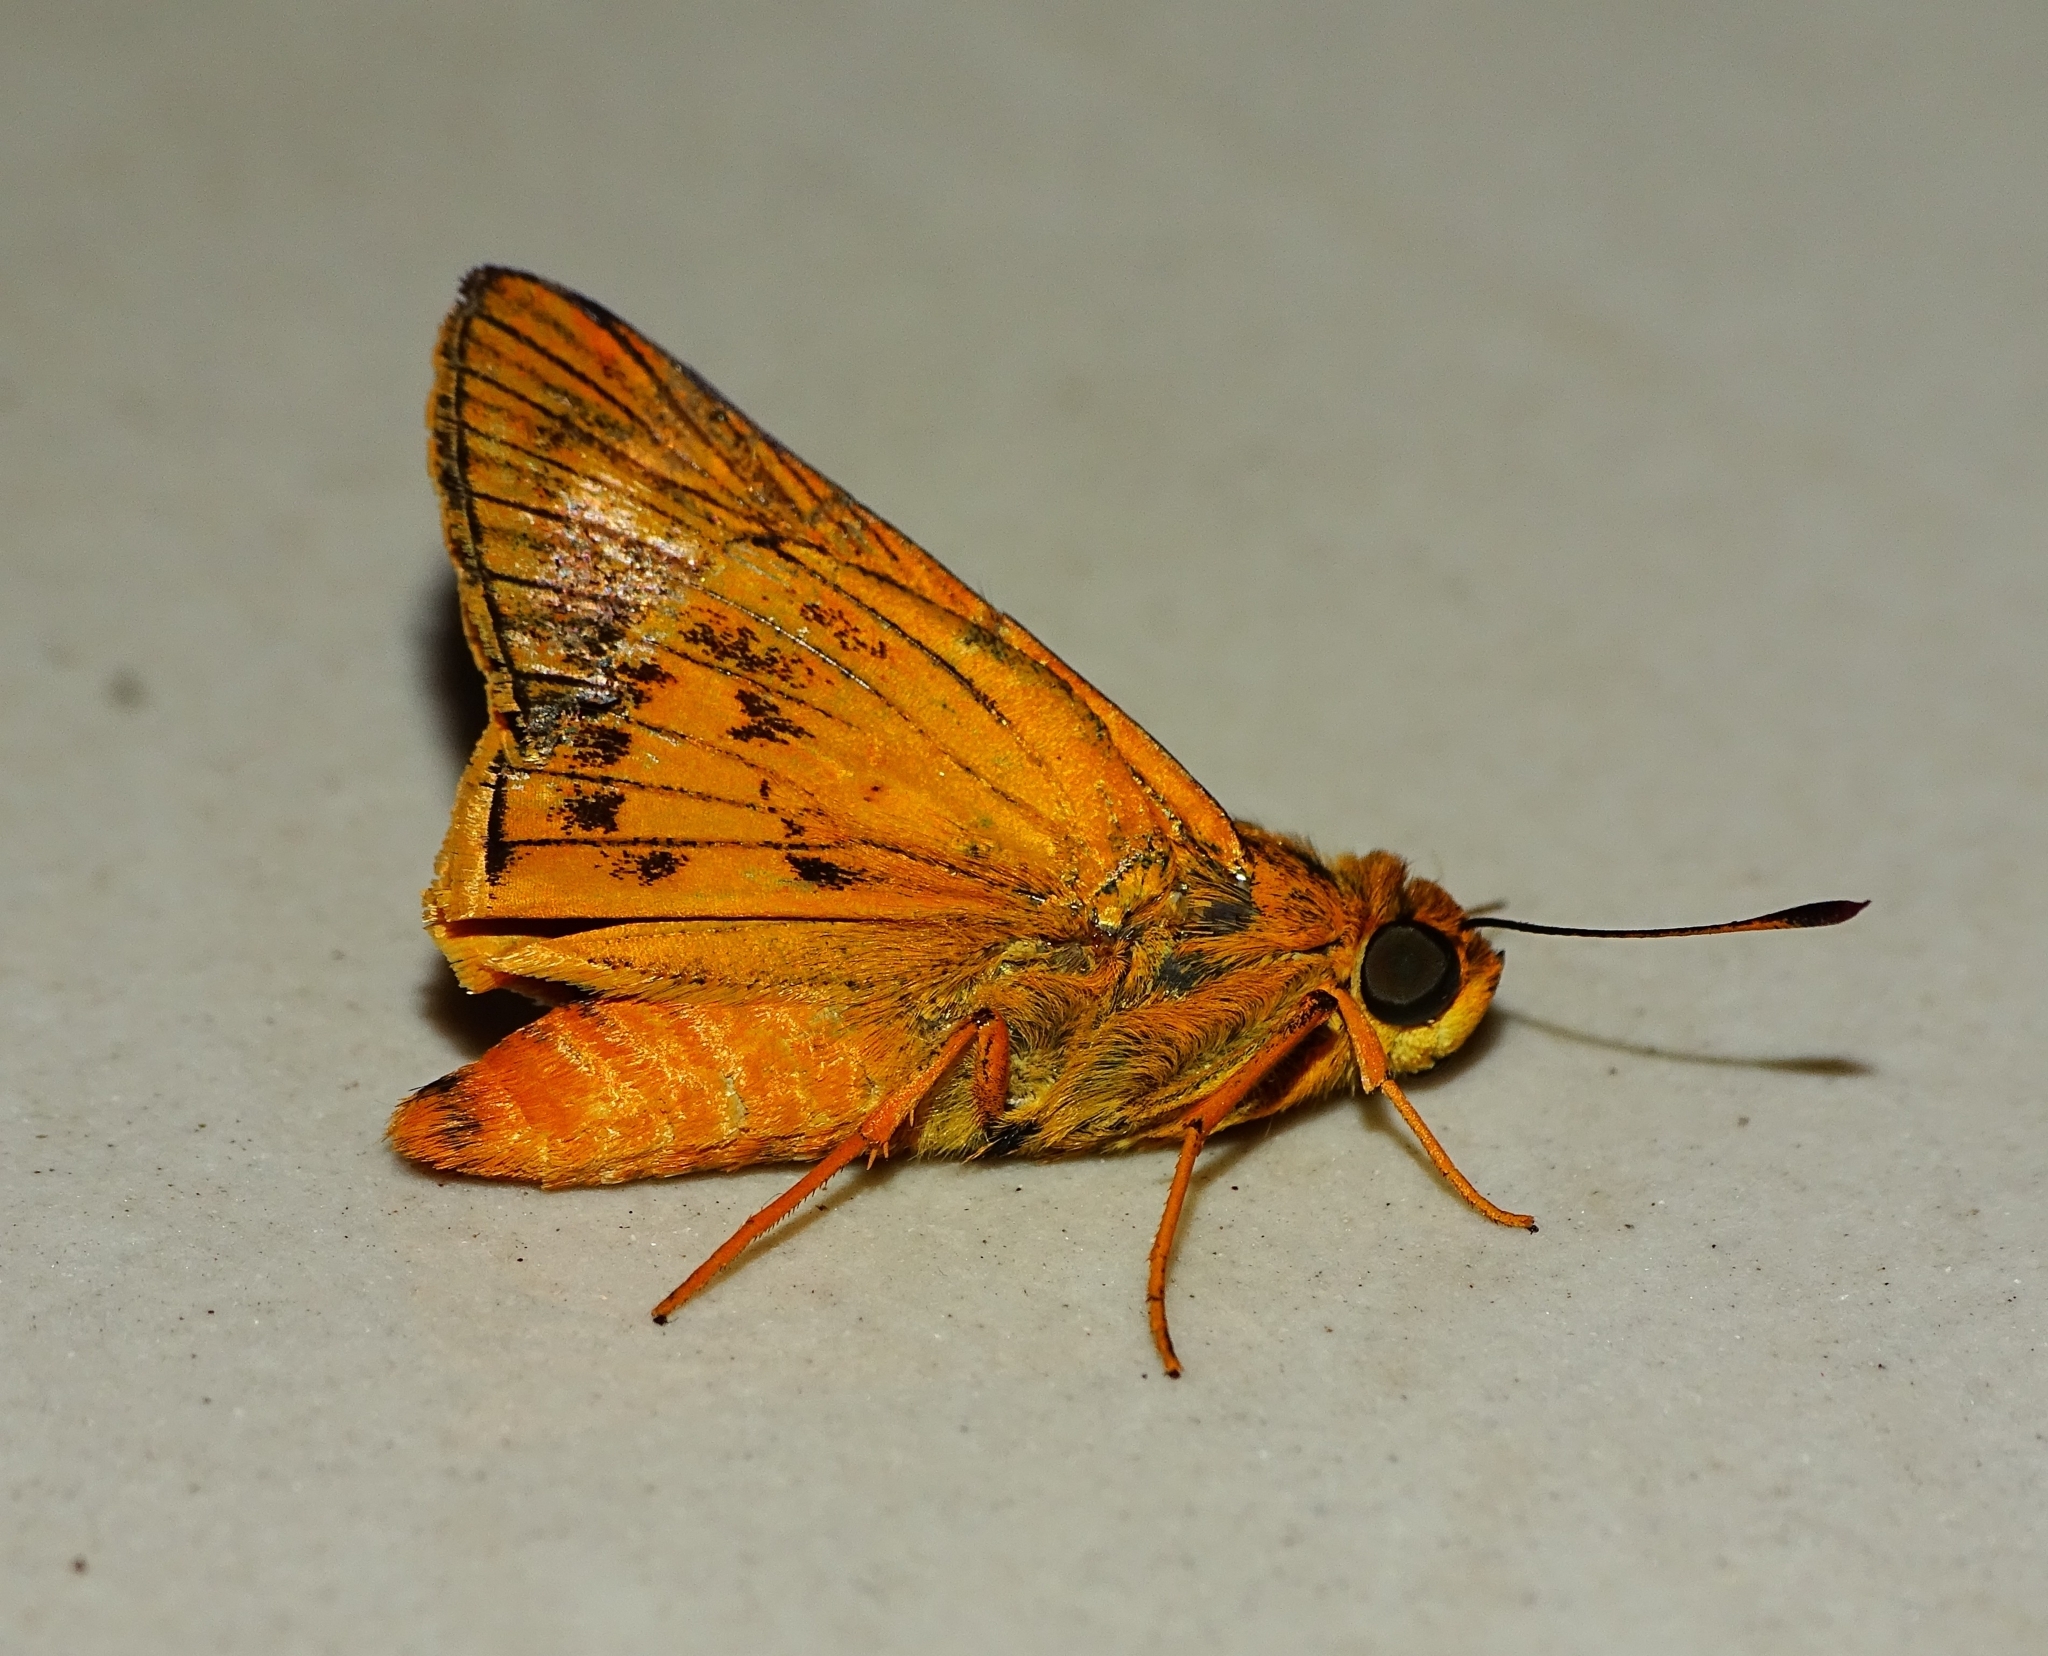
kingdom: Animalia
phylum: Arthropoda
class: Insecta
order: Lepidoptera
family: Hesperiidae
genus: Cephrenes
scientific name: Cephrenes
